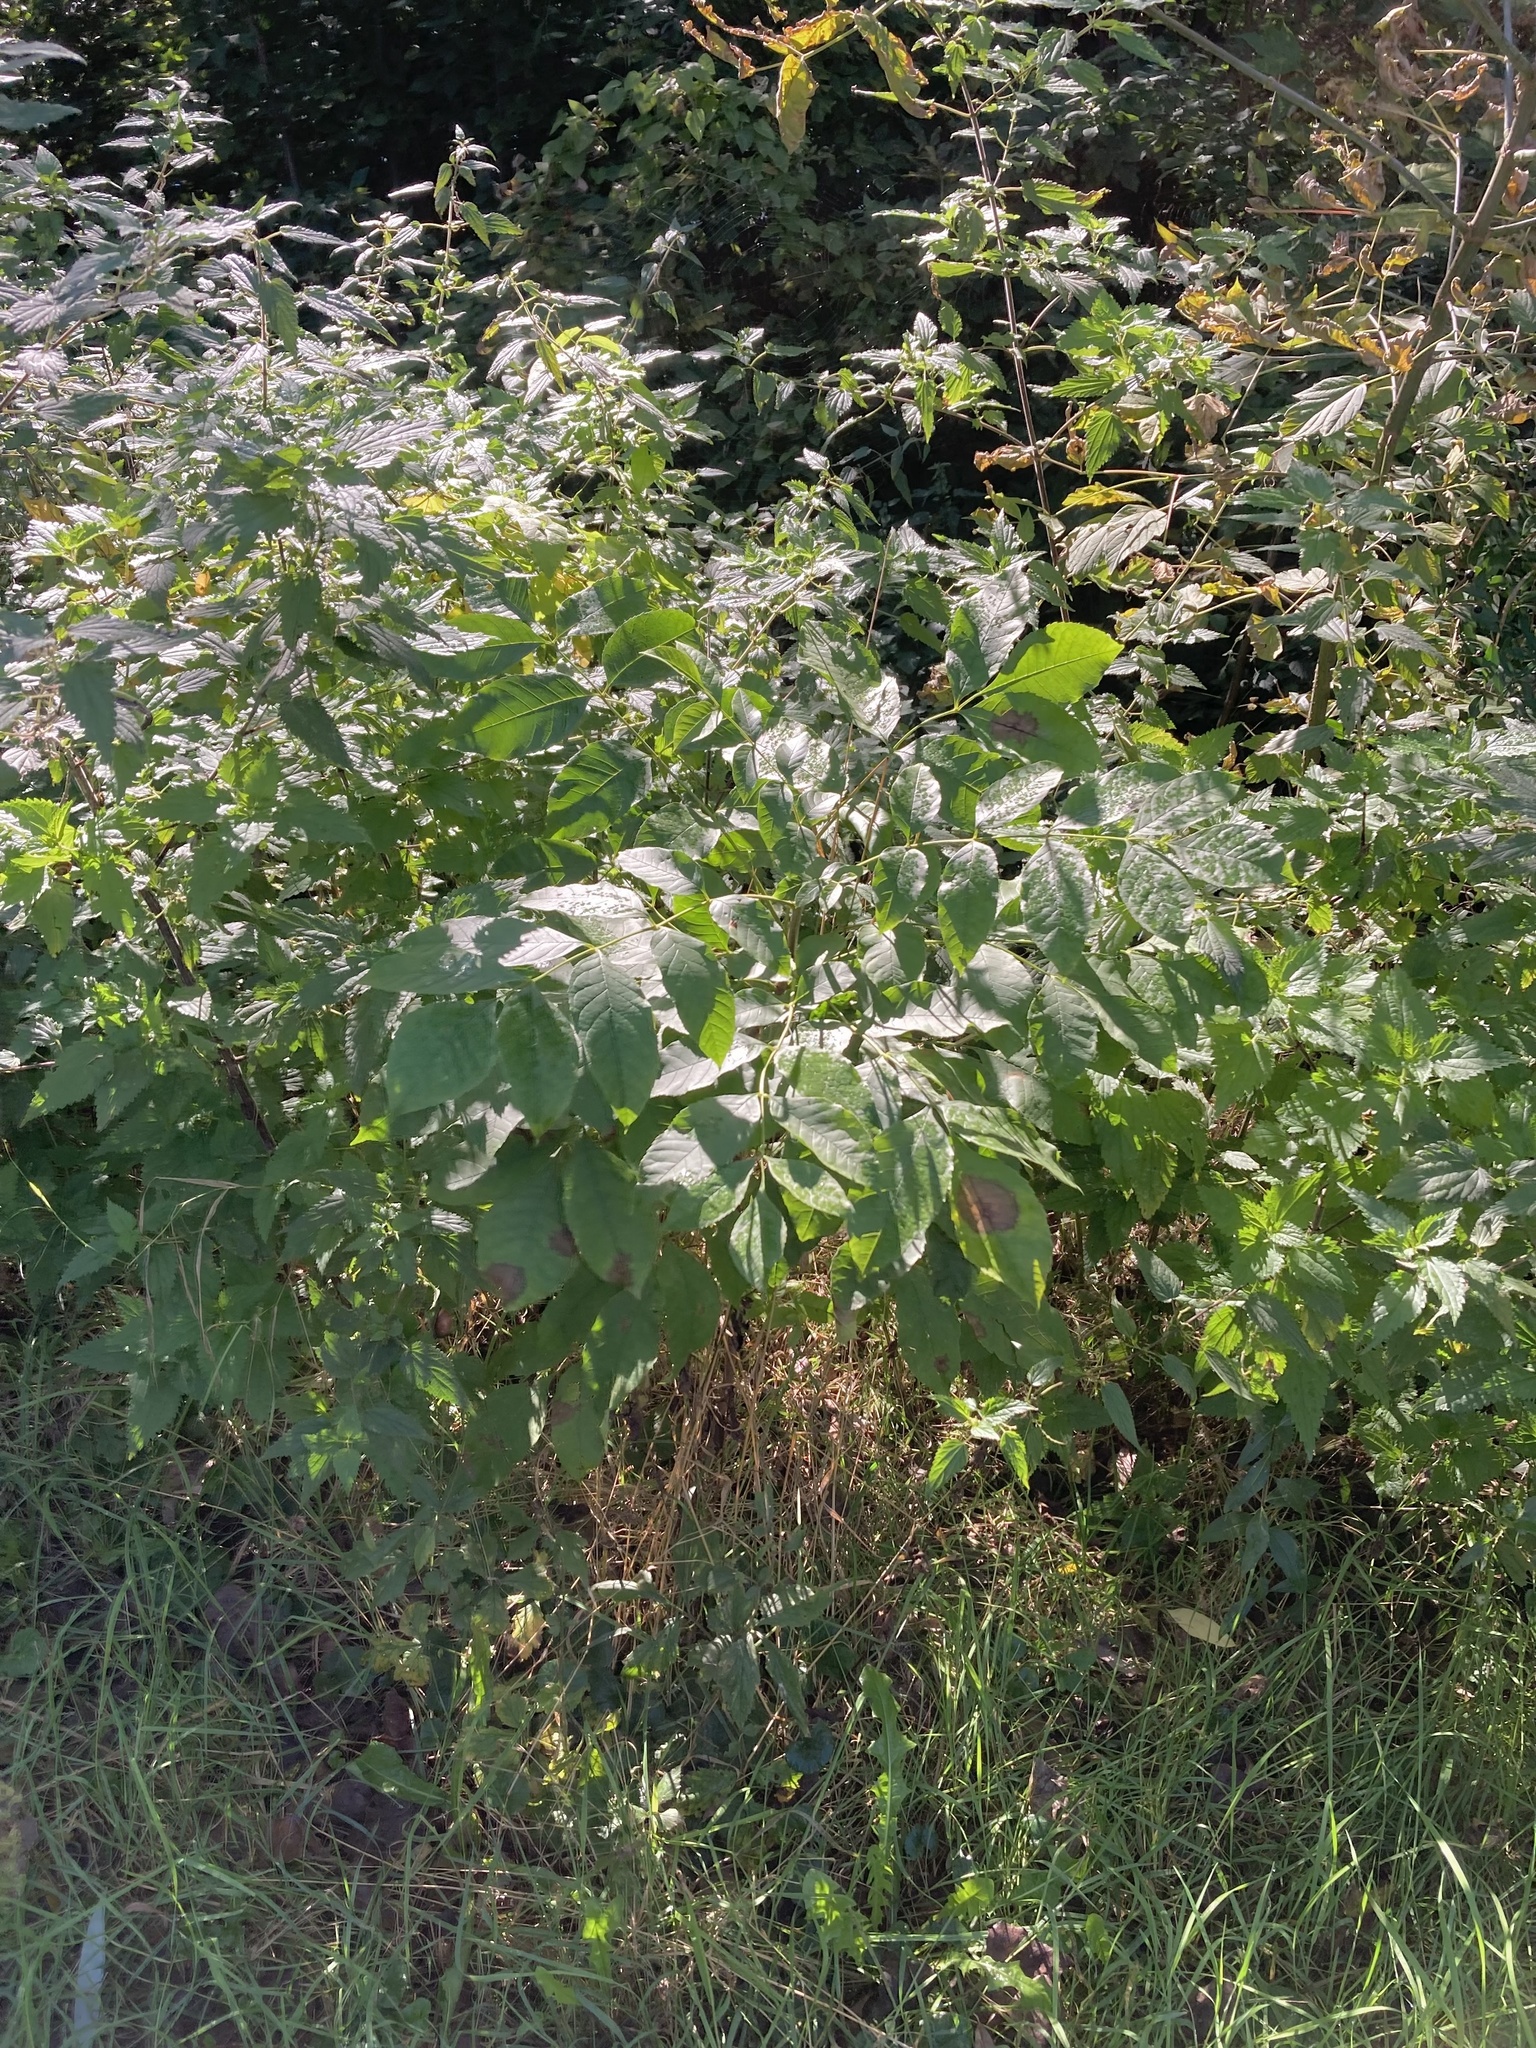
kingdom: Plantae
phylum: Tracheophyta
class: Magnoliopsida
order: Lamiales
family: Oleaceae
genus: Fraxinus
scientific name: Fraxinus excelsior
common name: European ash
